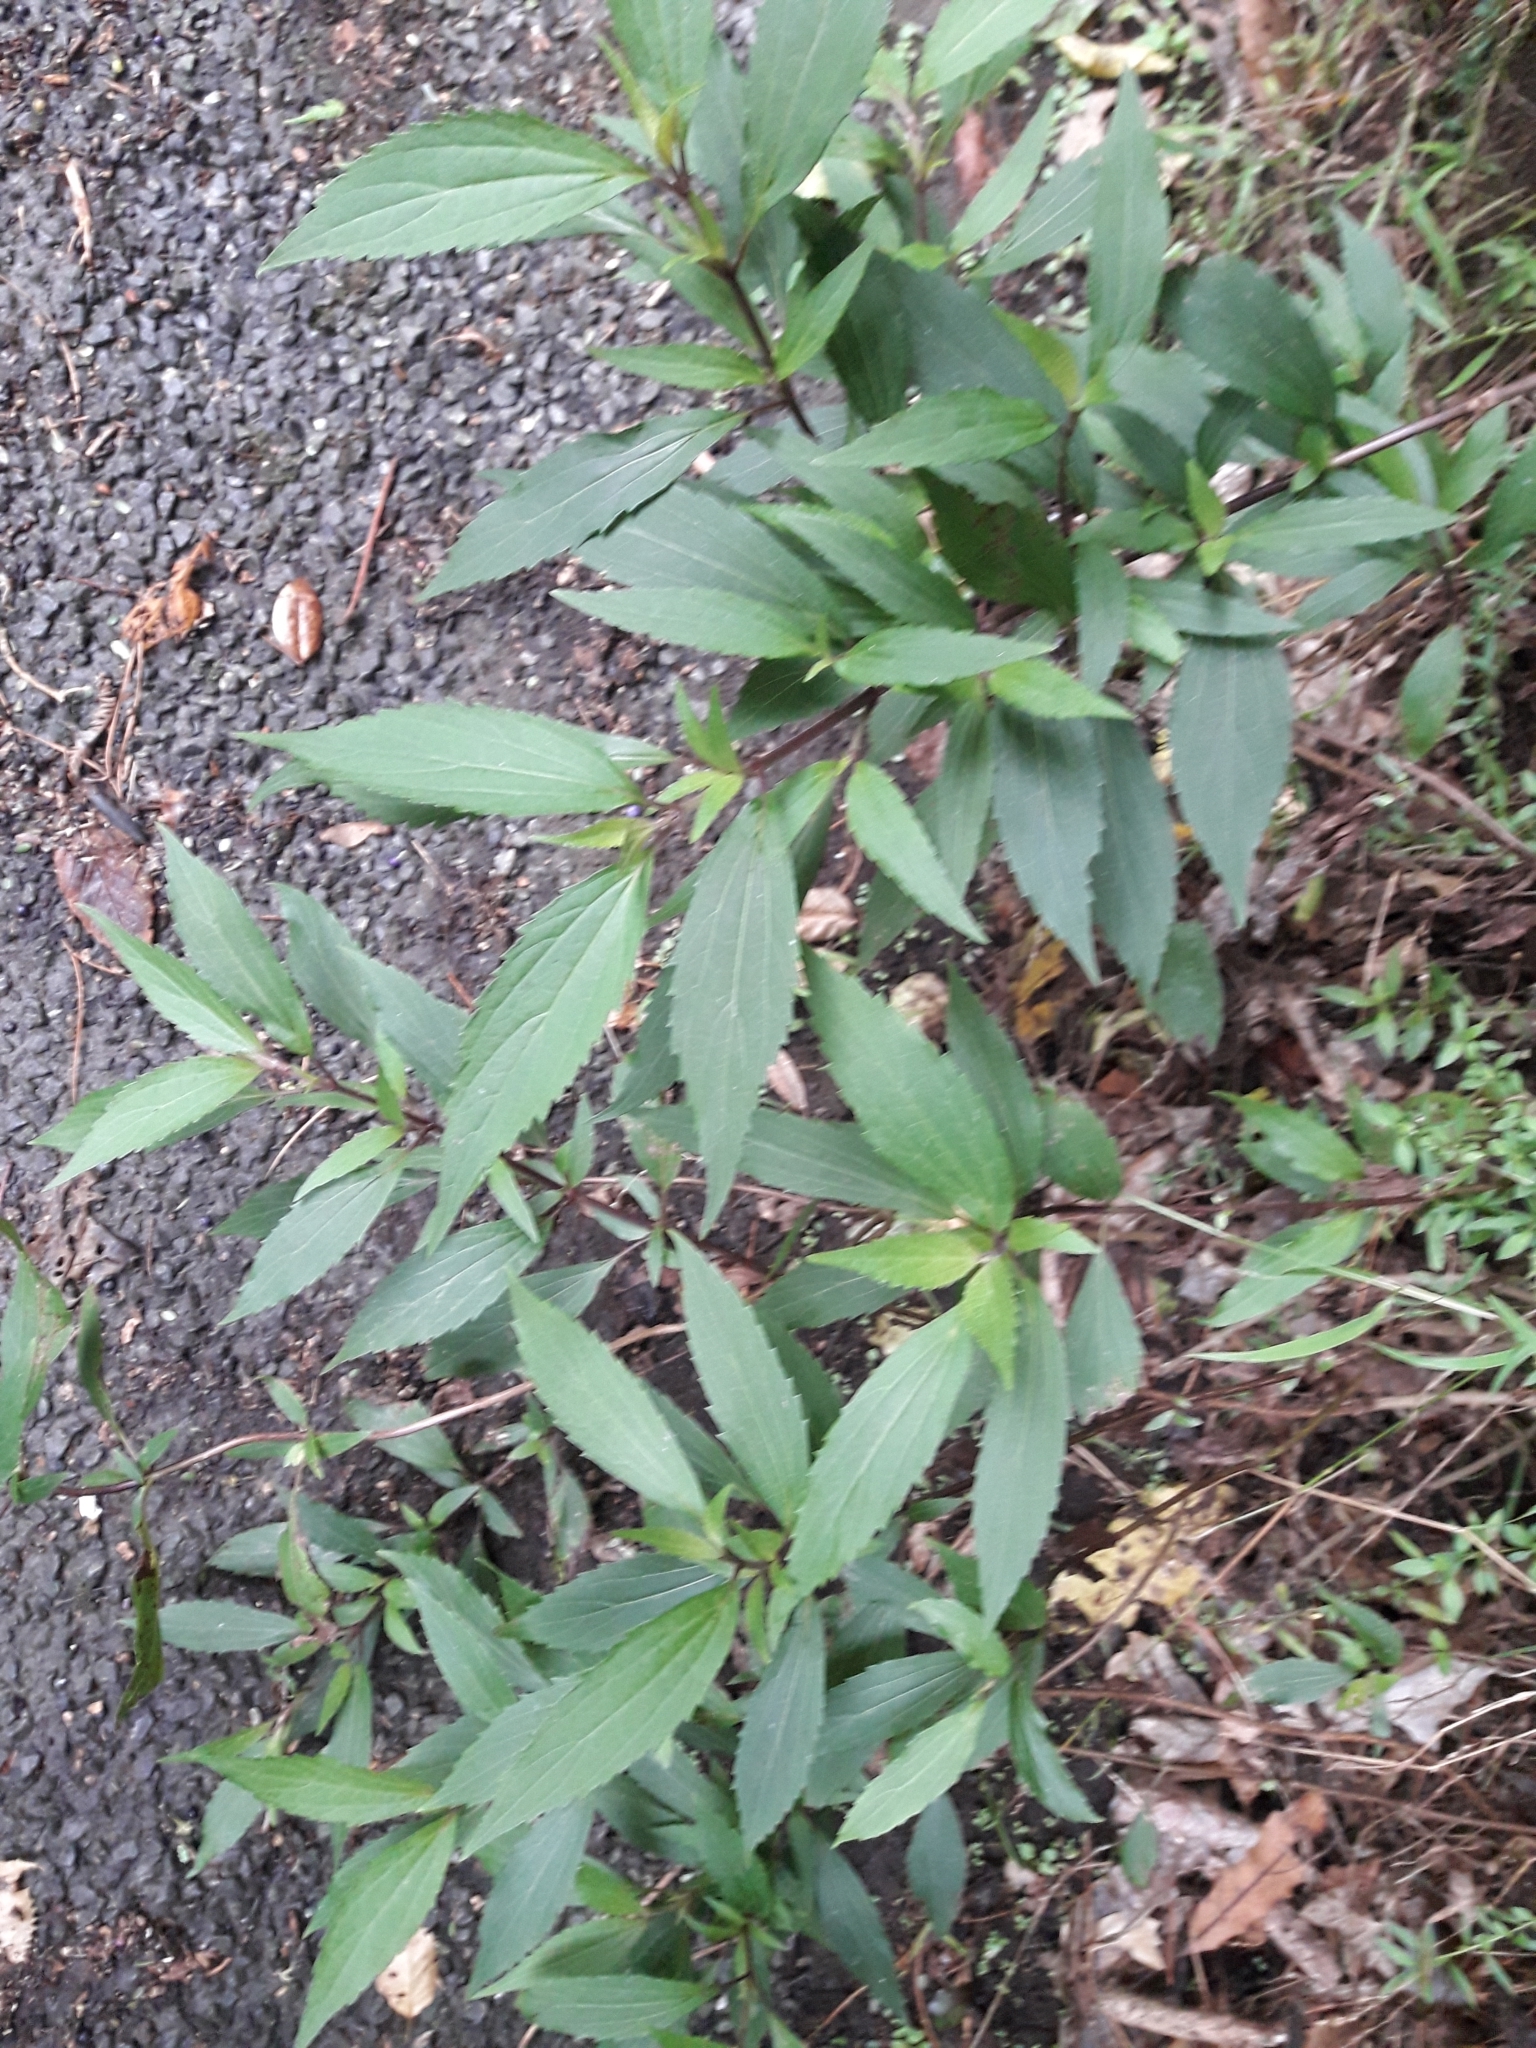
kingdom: Plantae
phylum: Tracheophyta
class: Magnoliopsida
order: Asterales
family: Asteraceae
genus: Ageratina
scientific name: Ageratina riparia
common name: Creeping croftonweed
